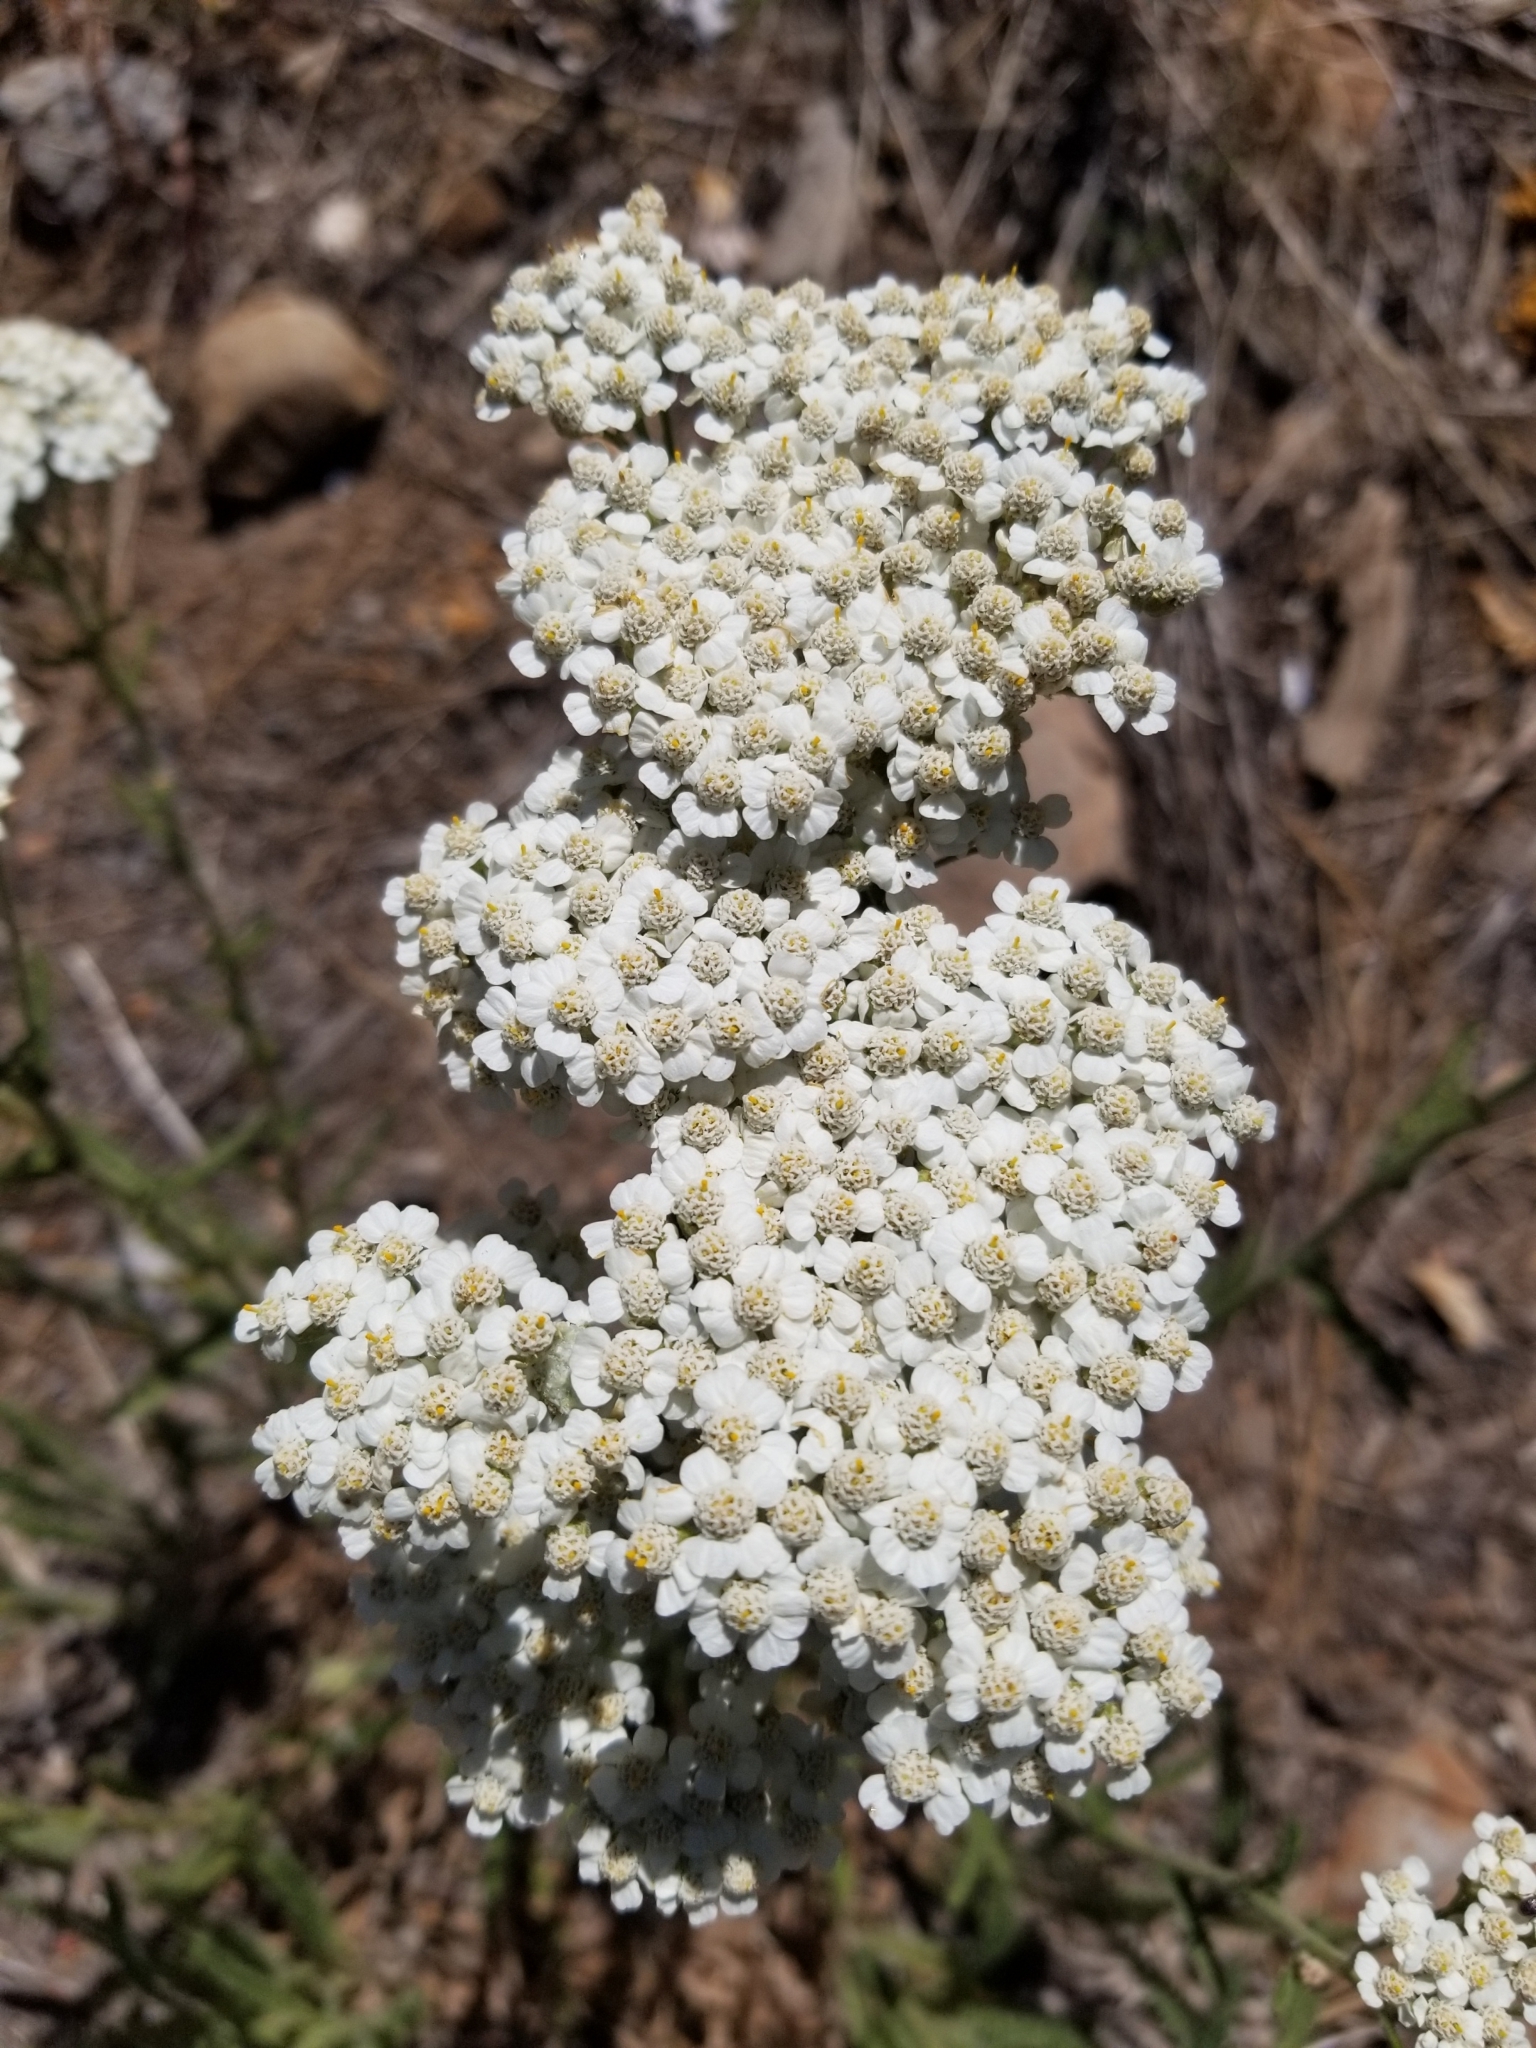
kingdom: Plantae
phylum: Tracheophyta
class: Magnoliopsida
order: Asterales
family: Asteraceae
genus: Achillea
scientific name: Achillea millefolium
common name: Yarrow
